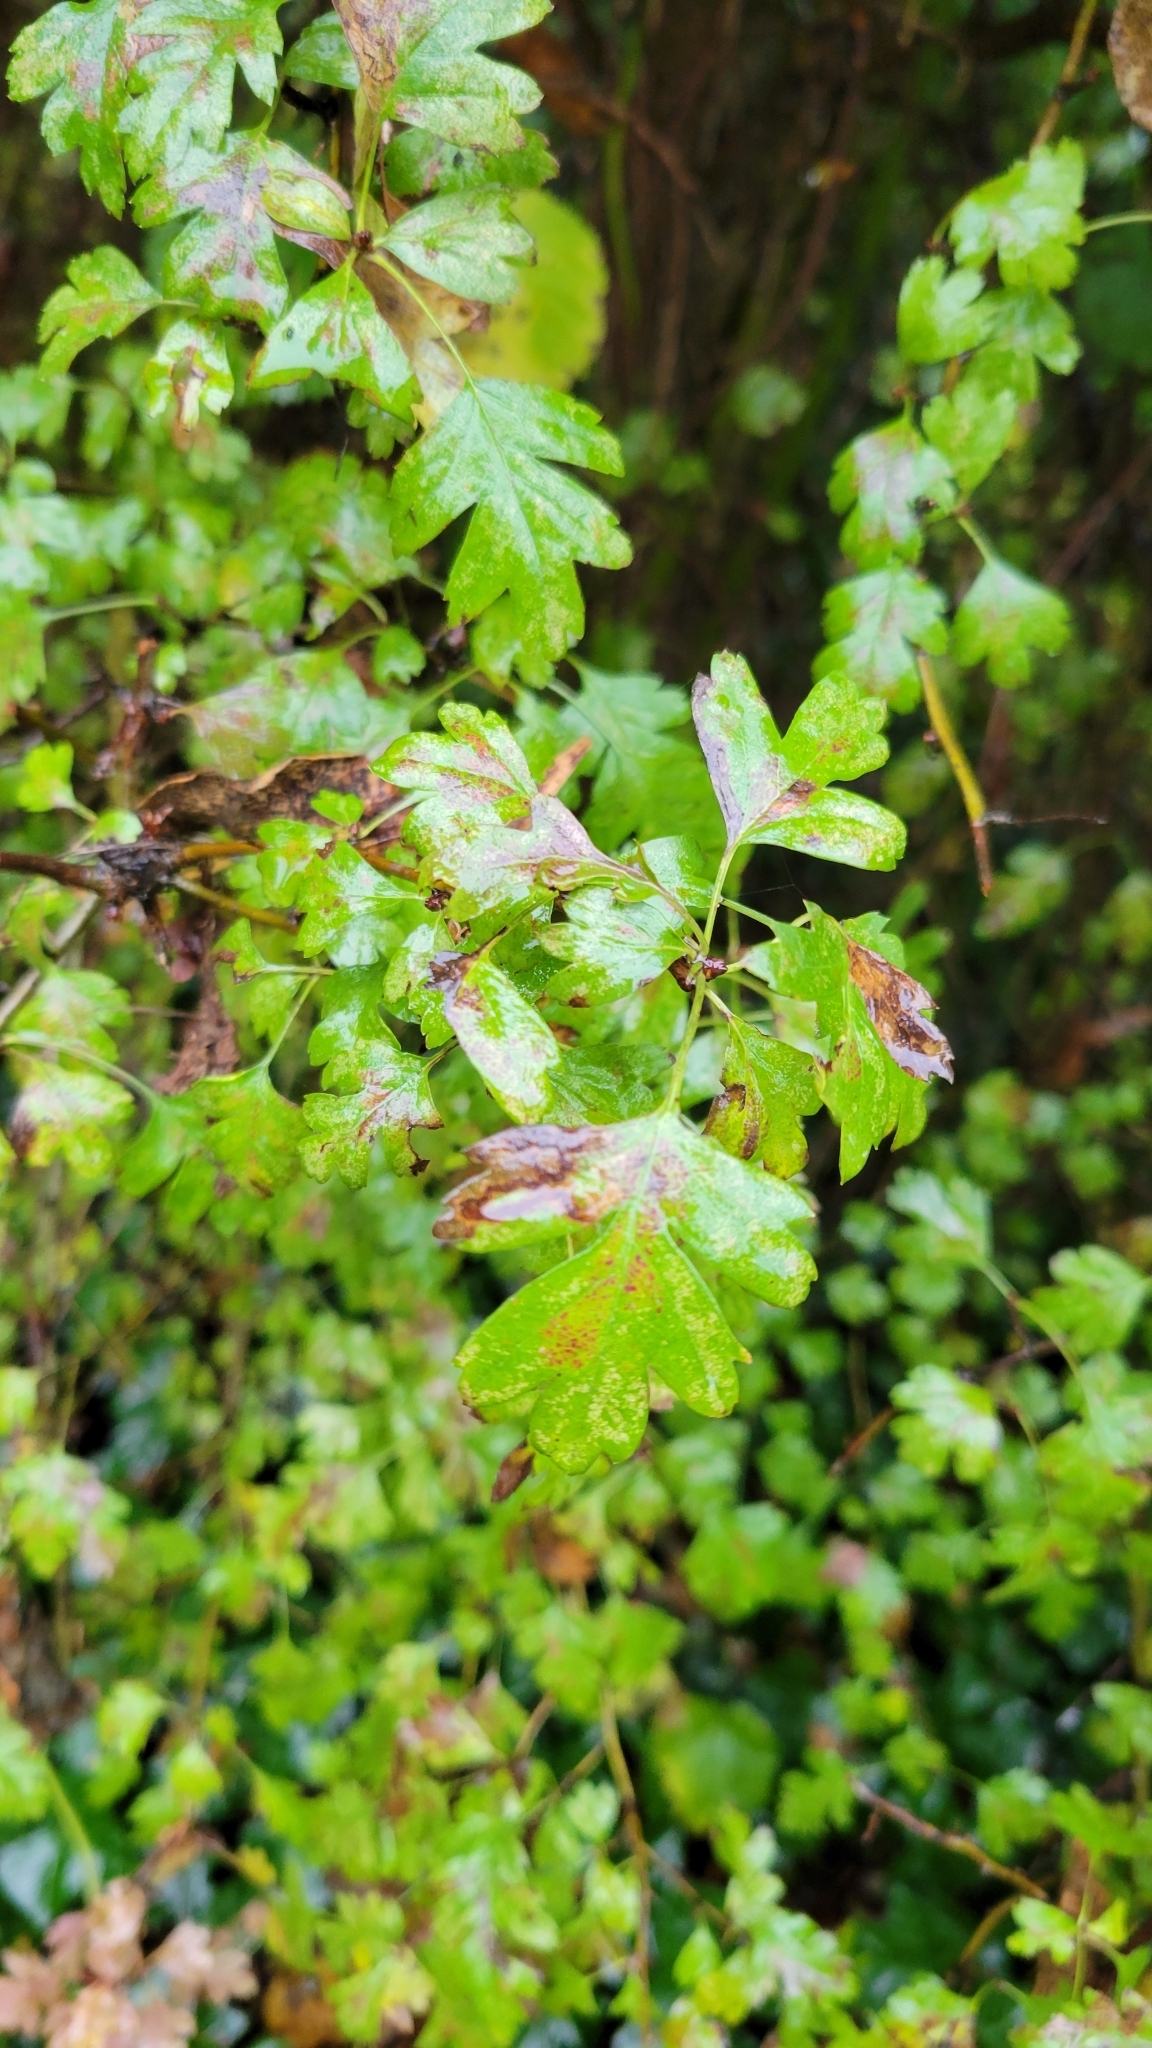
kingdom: Plantae
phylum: Tracheophyta
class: Magnoliopsida
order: Rosales
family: Rosaceae
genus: Crataegus
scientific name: Crataegus monogyna
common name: Hawthorn
